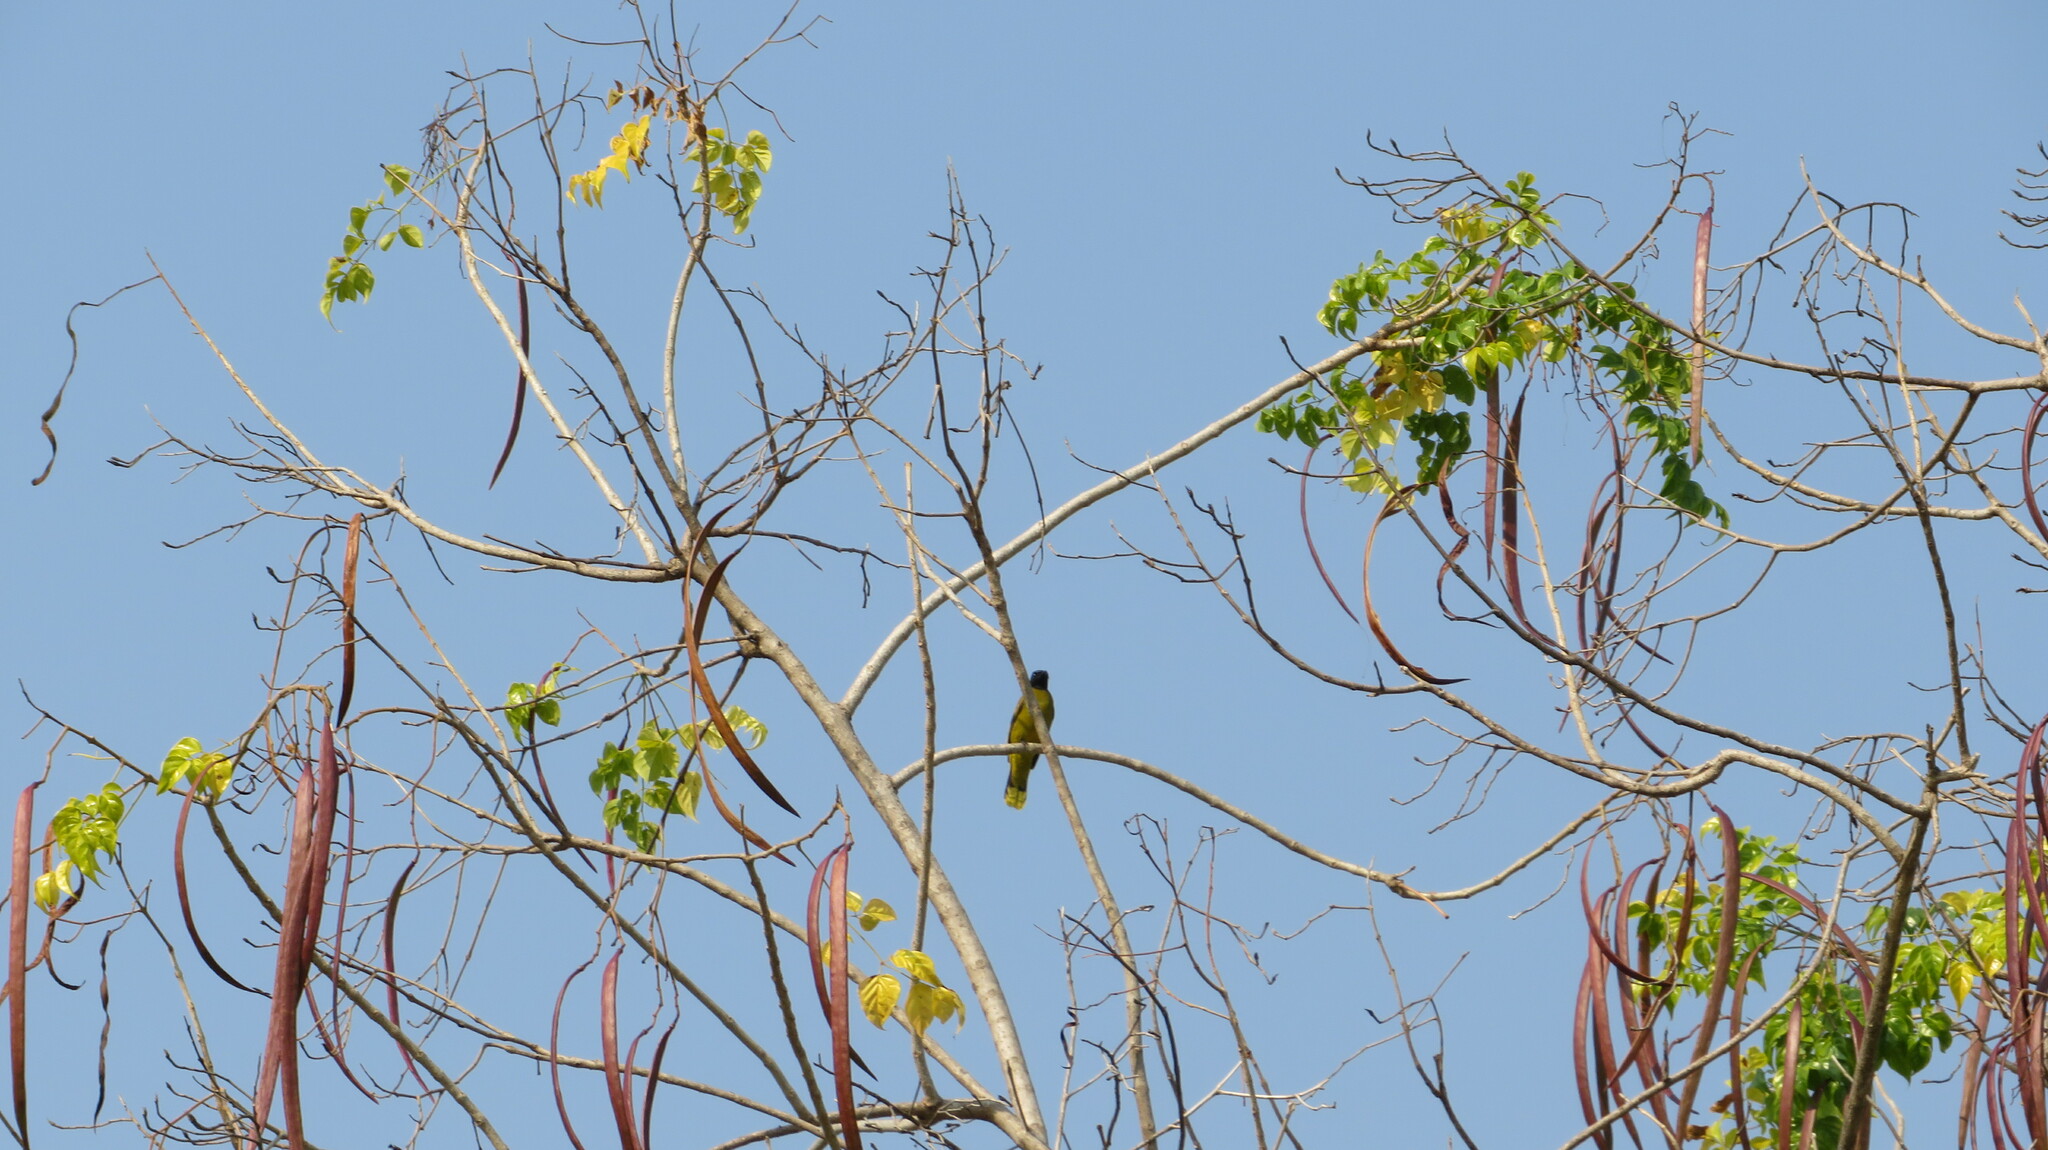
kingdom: Animalia
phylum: Chordata
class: Aves
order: Passeriformes
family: Pycnonotidae
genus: Microtarsus
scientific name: Microtarsus
